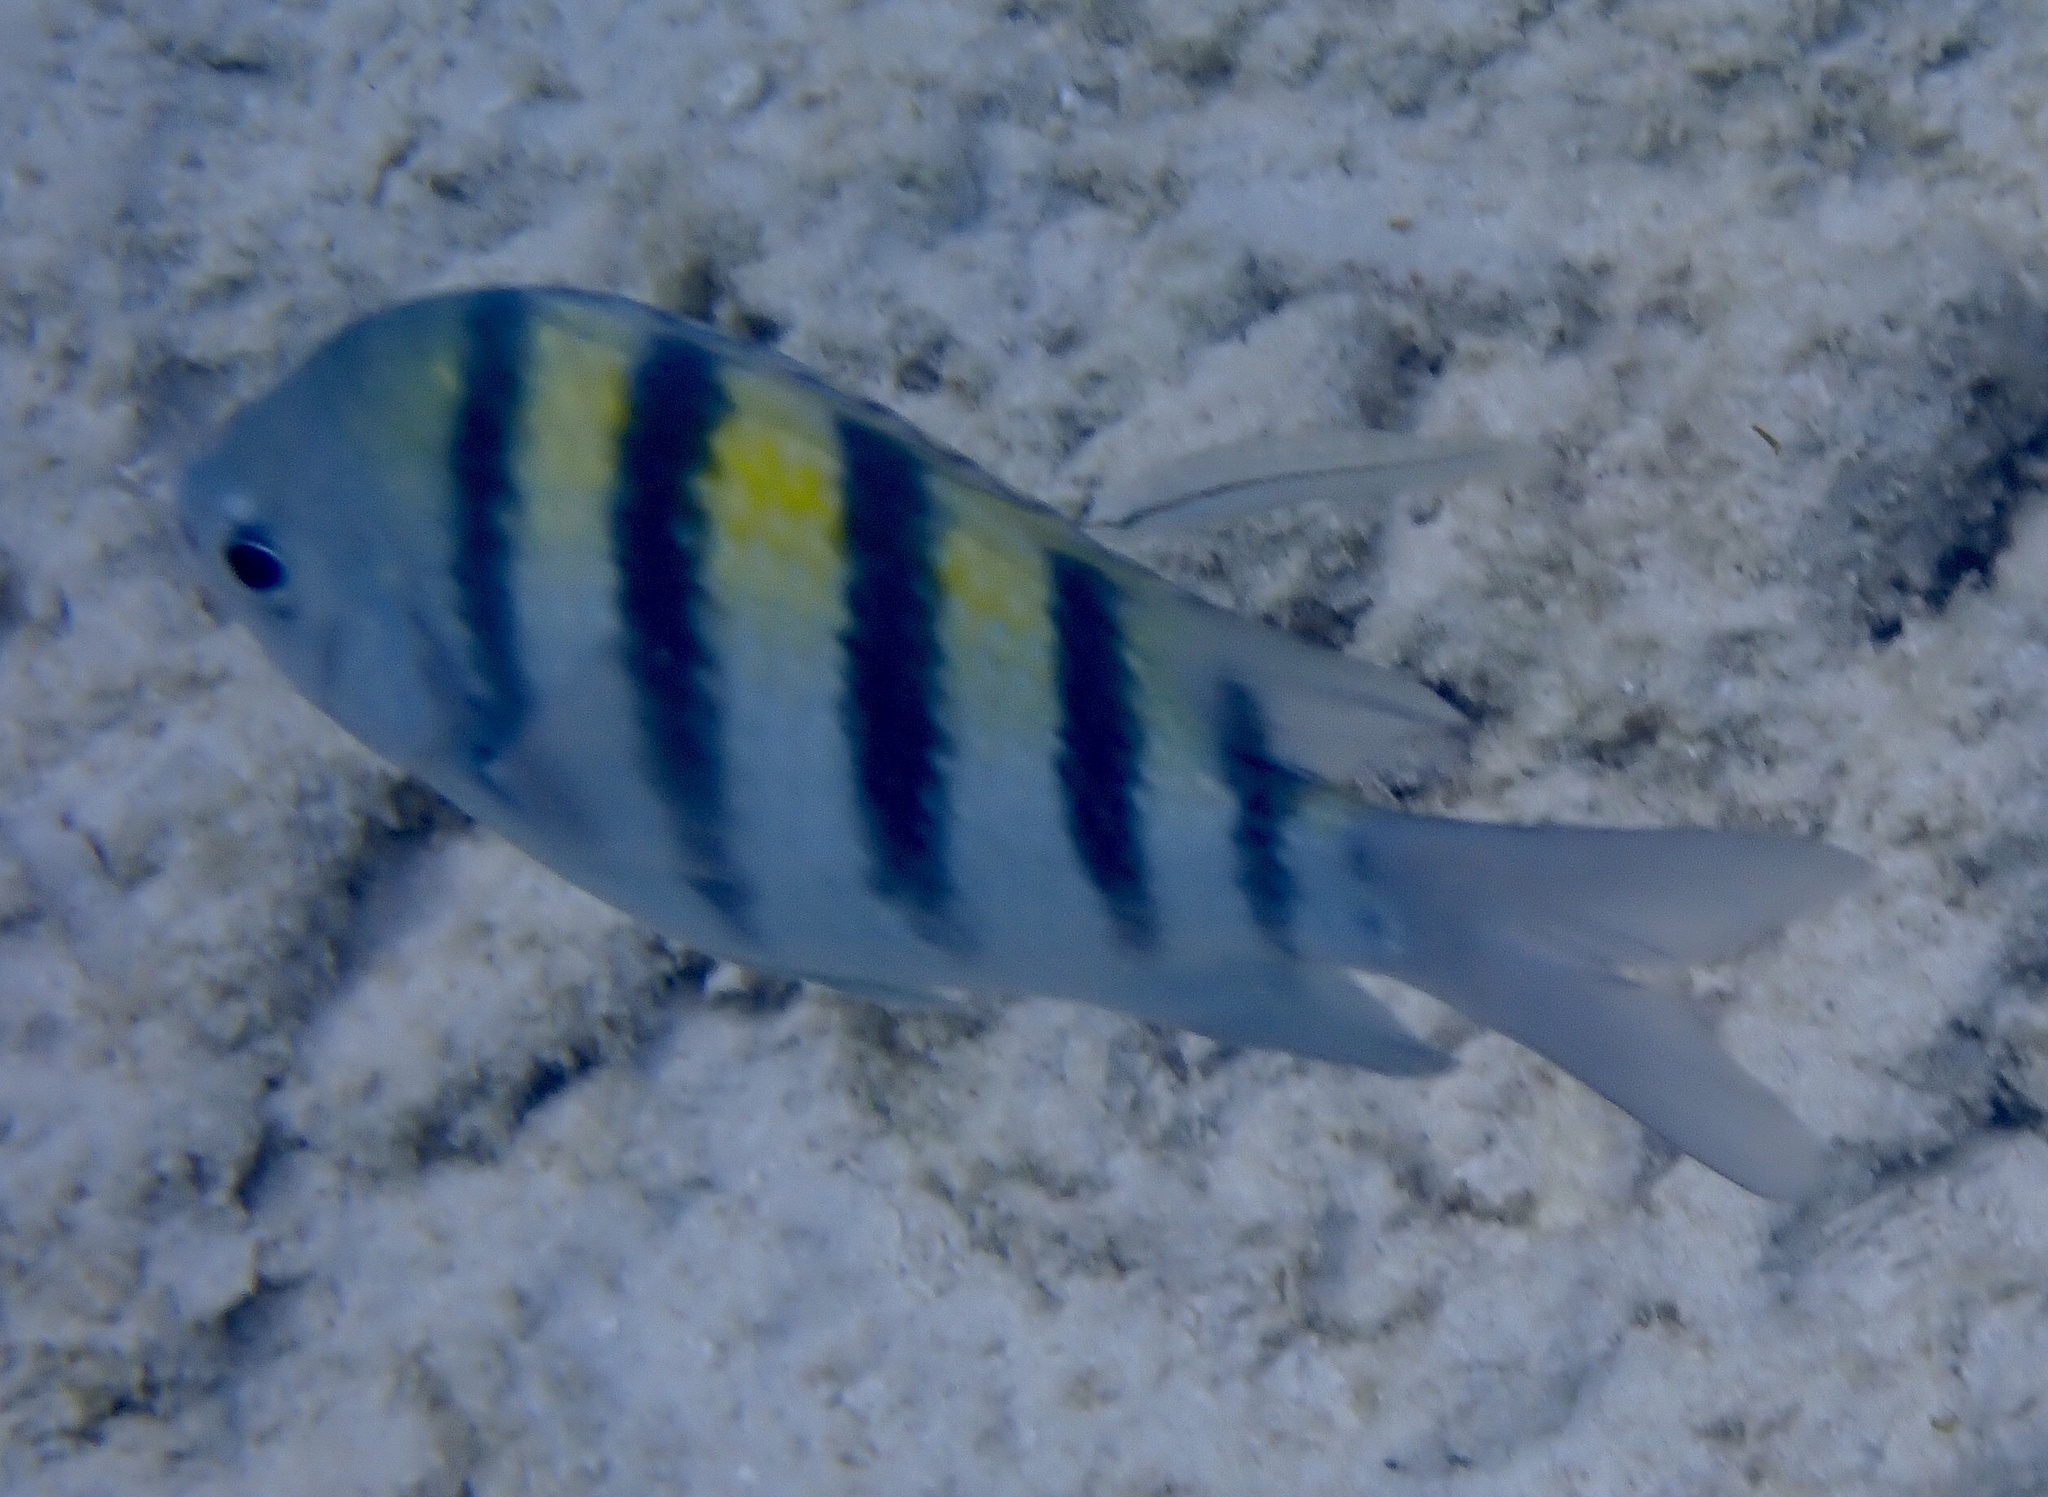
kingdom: Animalia
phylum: Chordata
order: Perciformes
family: Pomacentridae
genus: Abudefduf
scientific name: Abudefduf saxatilis
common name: Sergeant major
